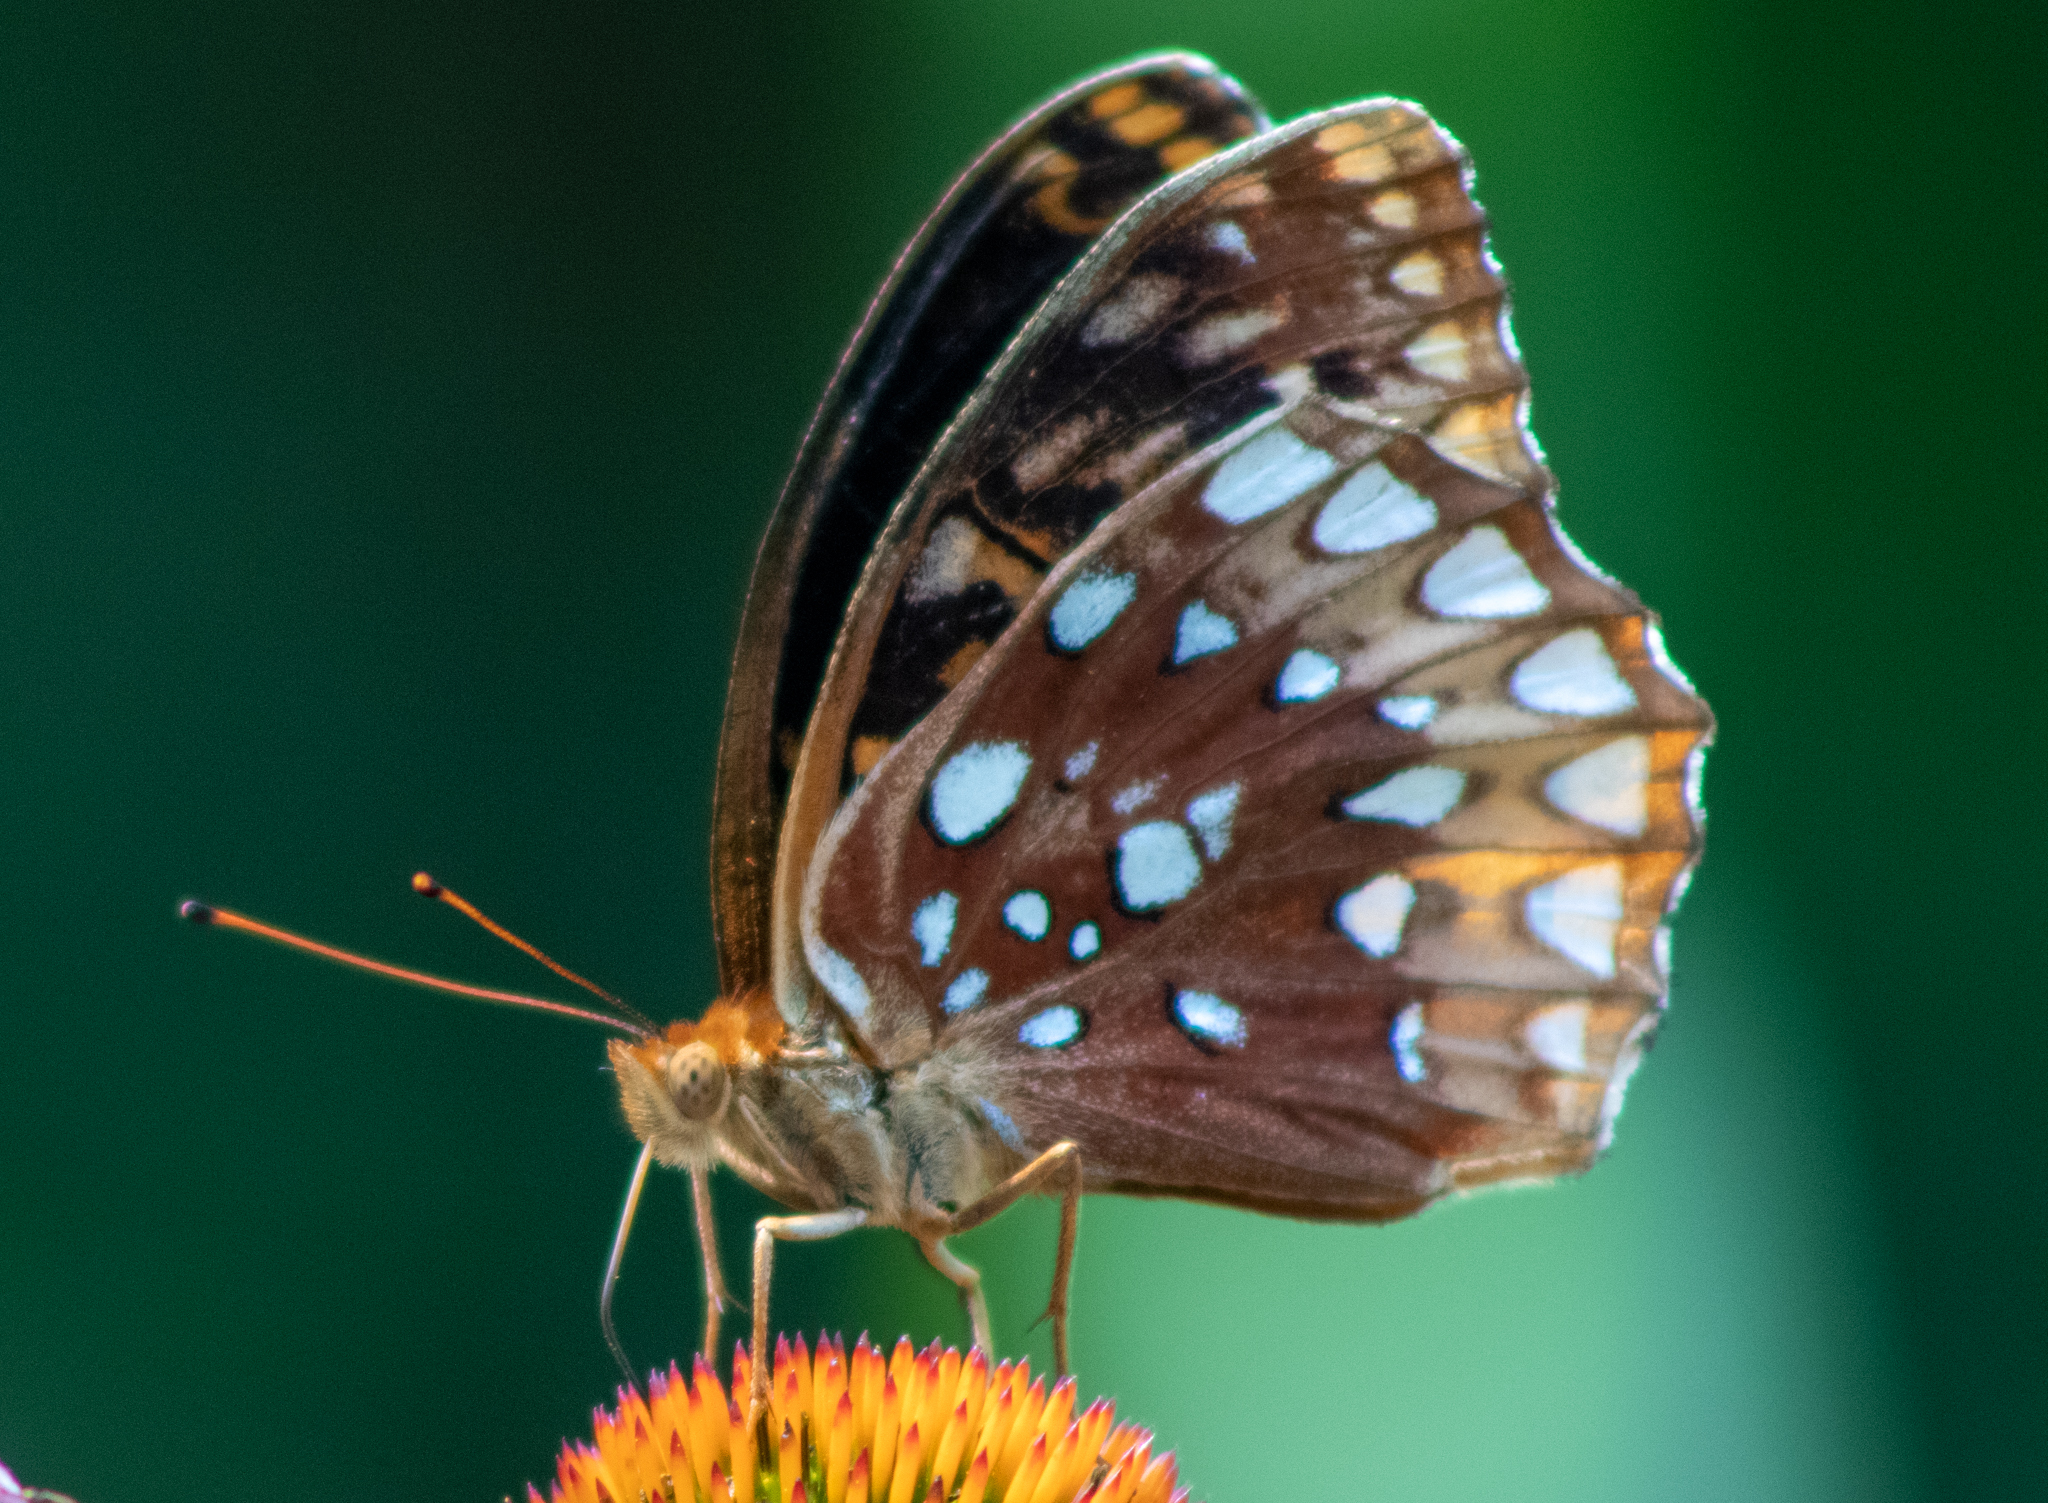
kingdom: Animalia
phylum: Arthropoda
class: Insecta
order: Lepidoptera
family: Nymphalidae
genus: Speyeria
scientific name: Speyeria cybele
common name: Great spangled fritillary
